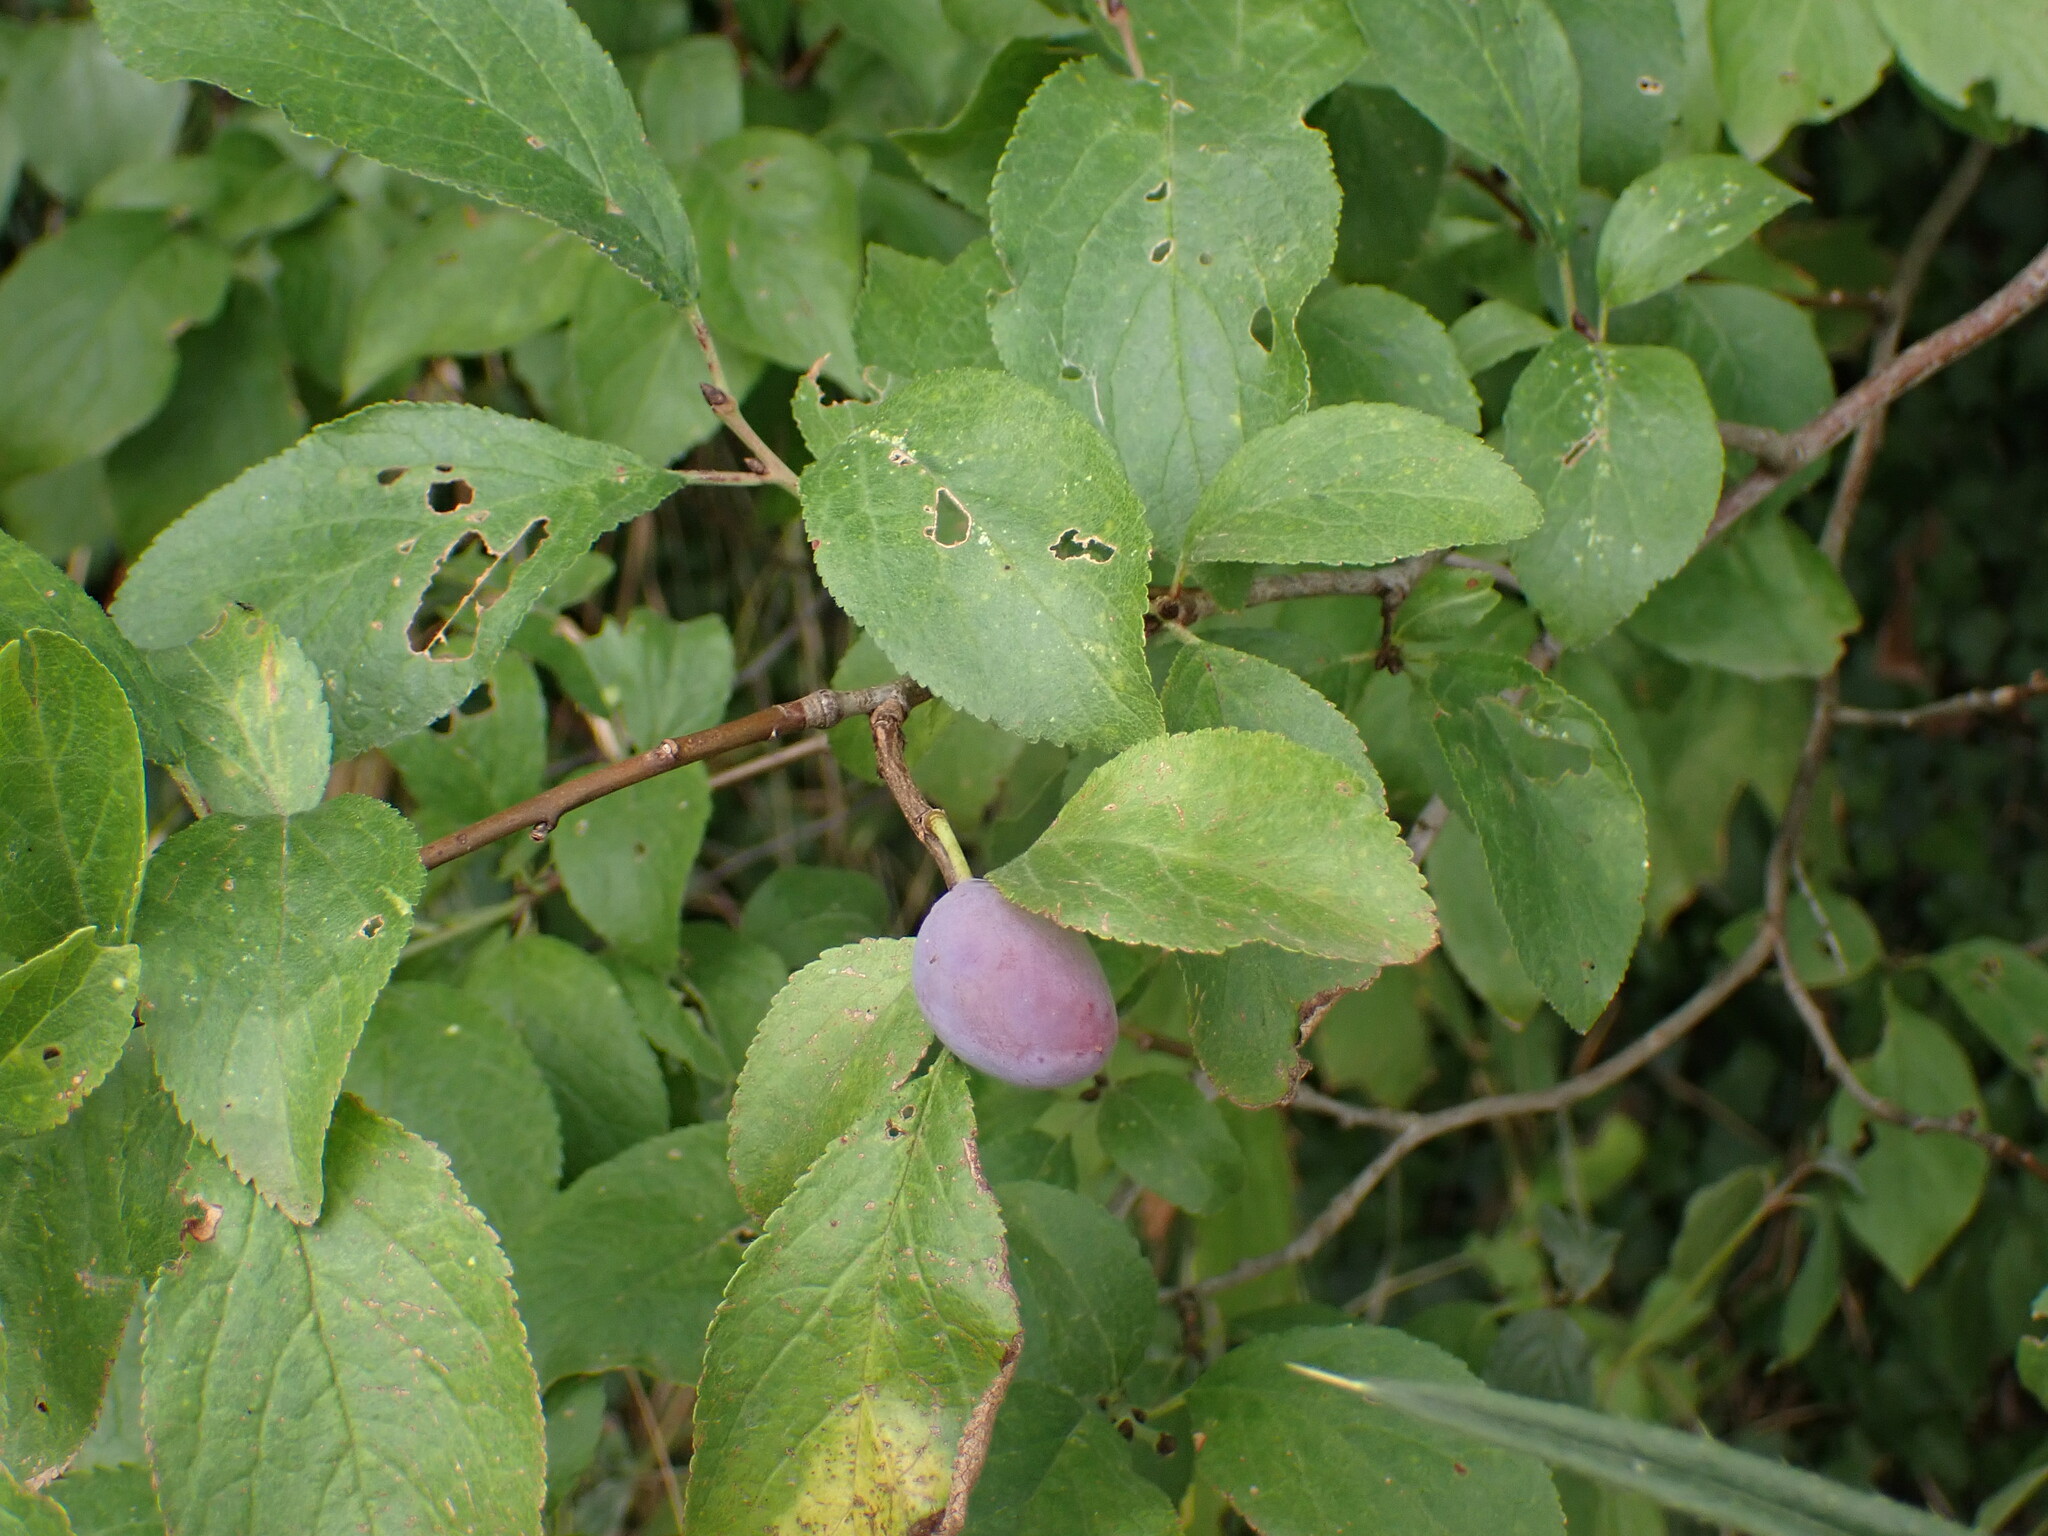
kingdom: Plantae
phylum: Tracheophyta
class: Magnoliopsida
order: Rosales
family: Rosaceae
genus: Prunus
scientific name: Prunus domestica
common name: Wild plum
